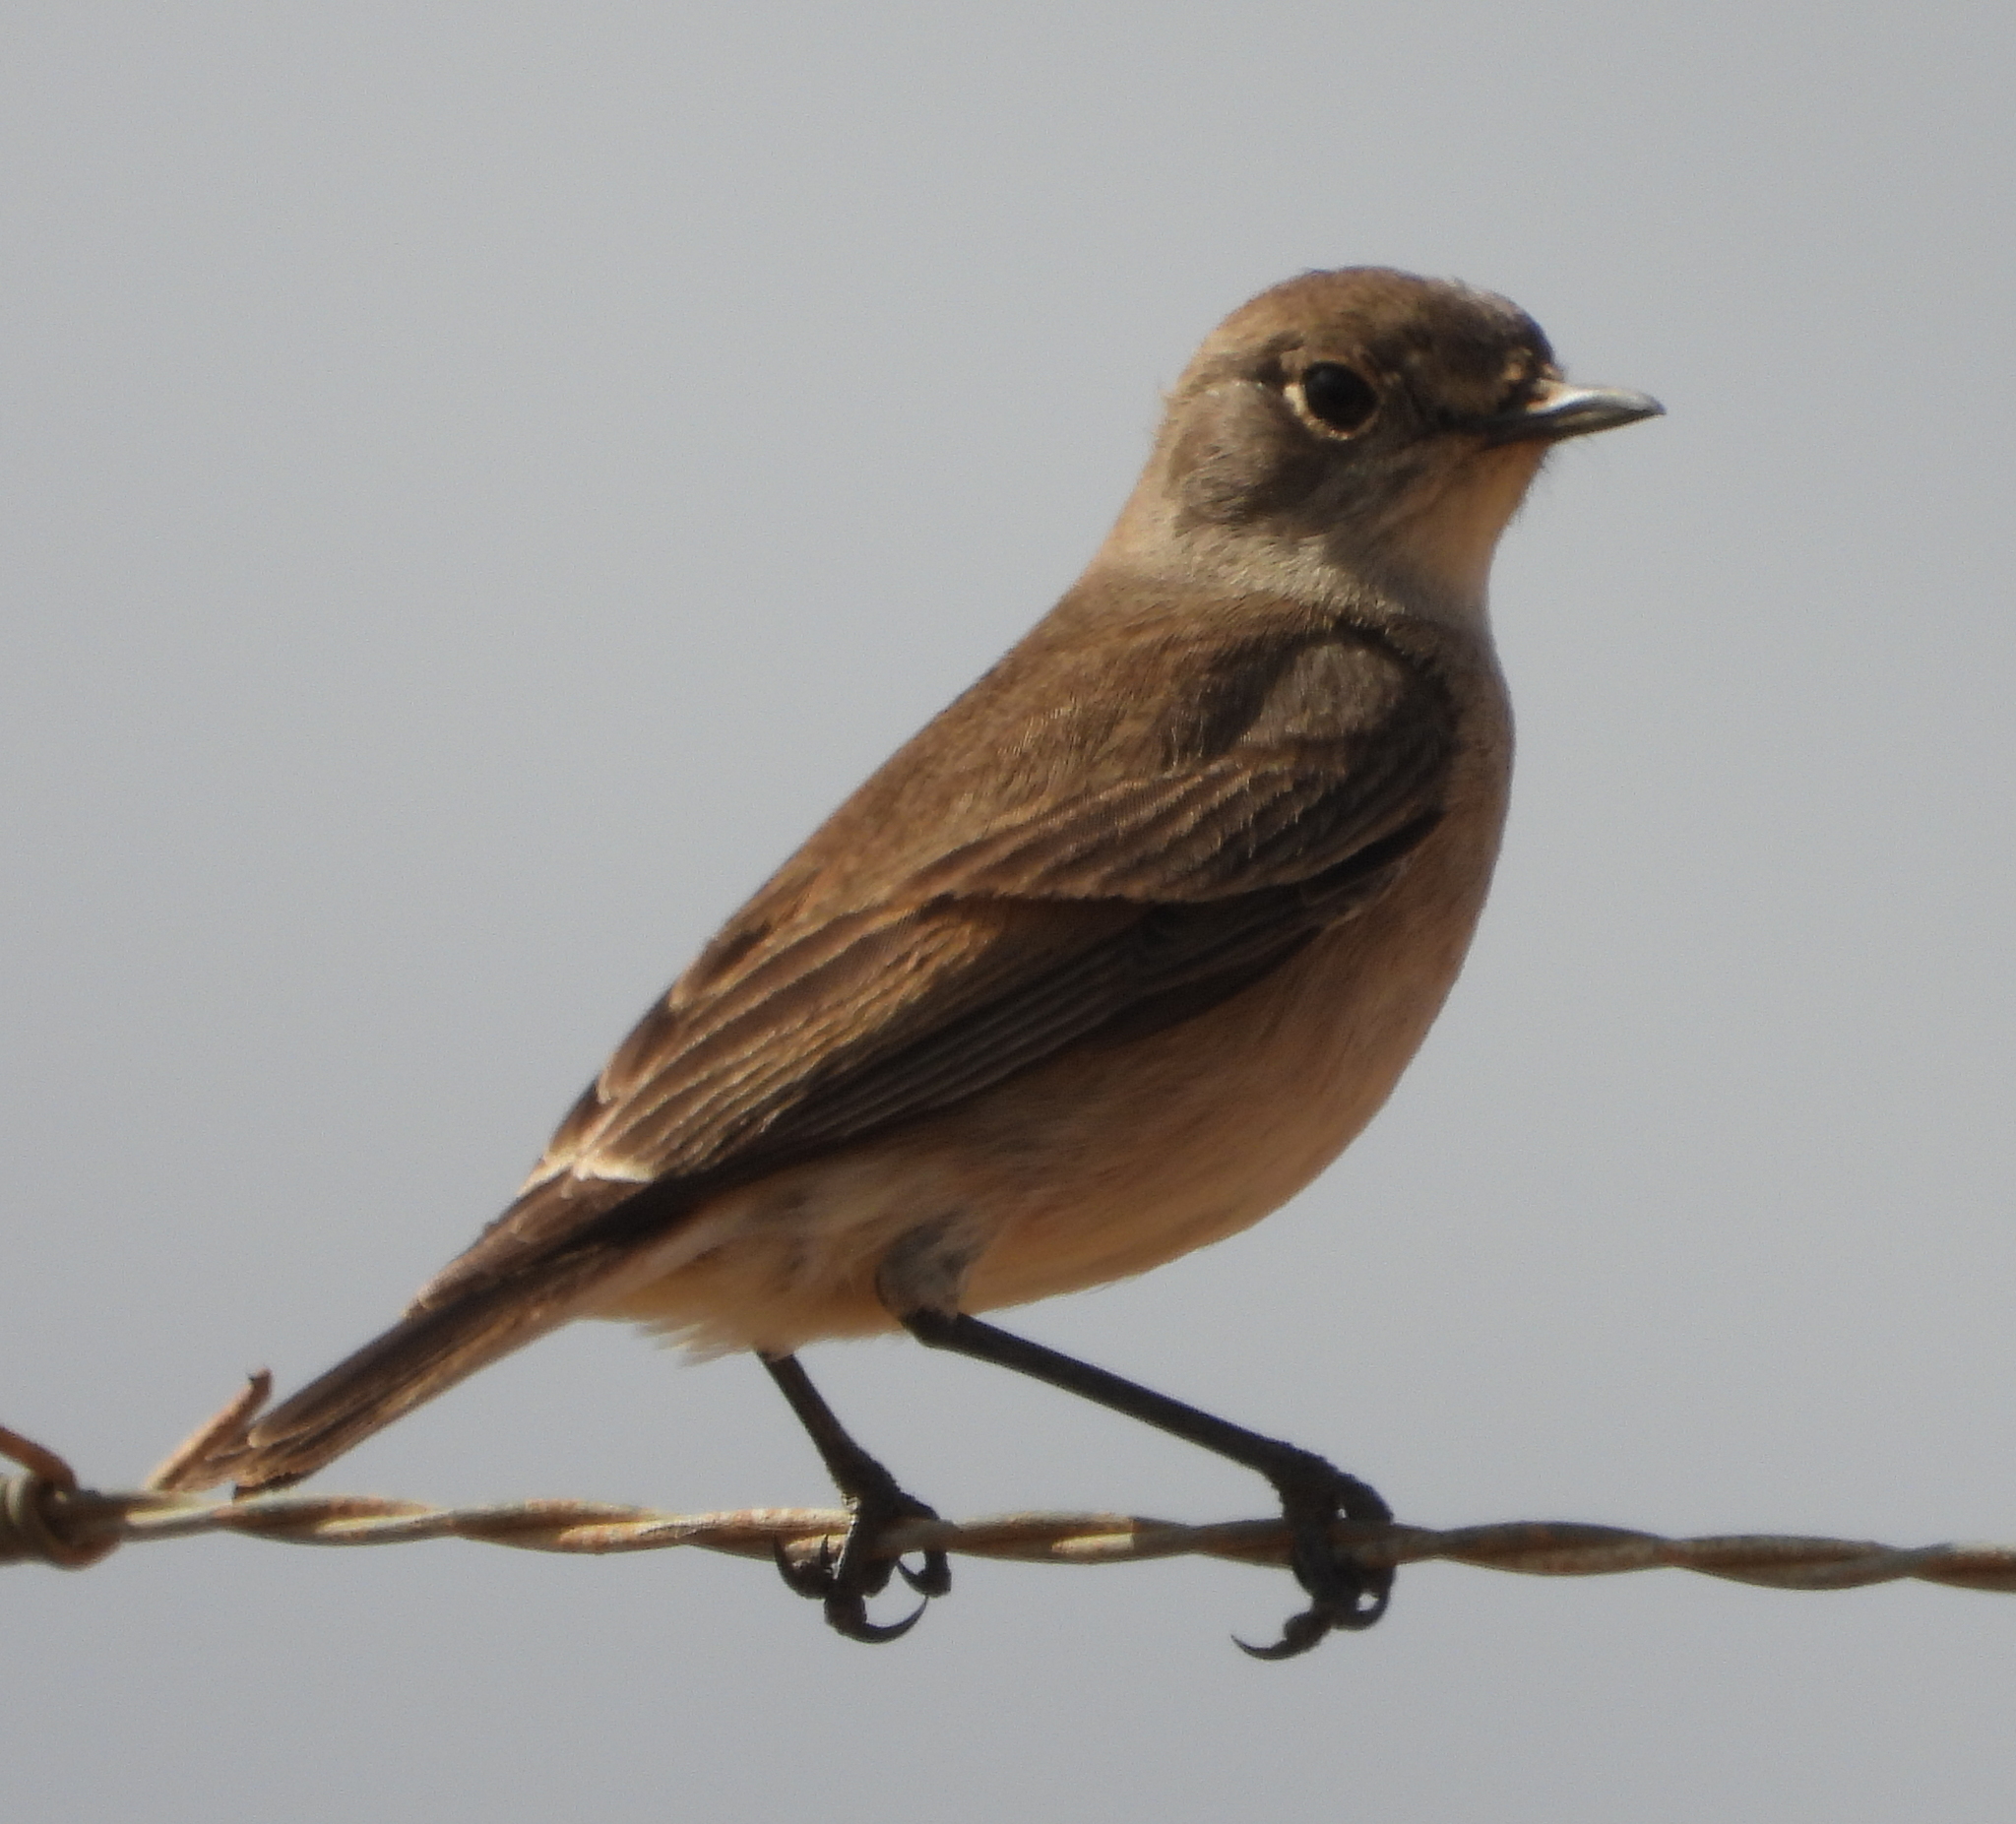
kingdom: Animalia
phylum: Chordata
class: Aves
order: Passeriformes
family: Muscicapidae
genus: Oenanthe
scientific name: Oenanthe familiaris
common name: Familiar chat
